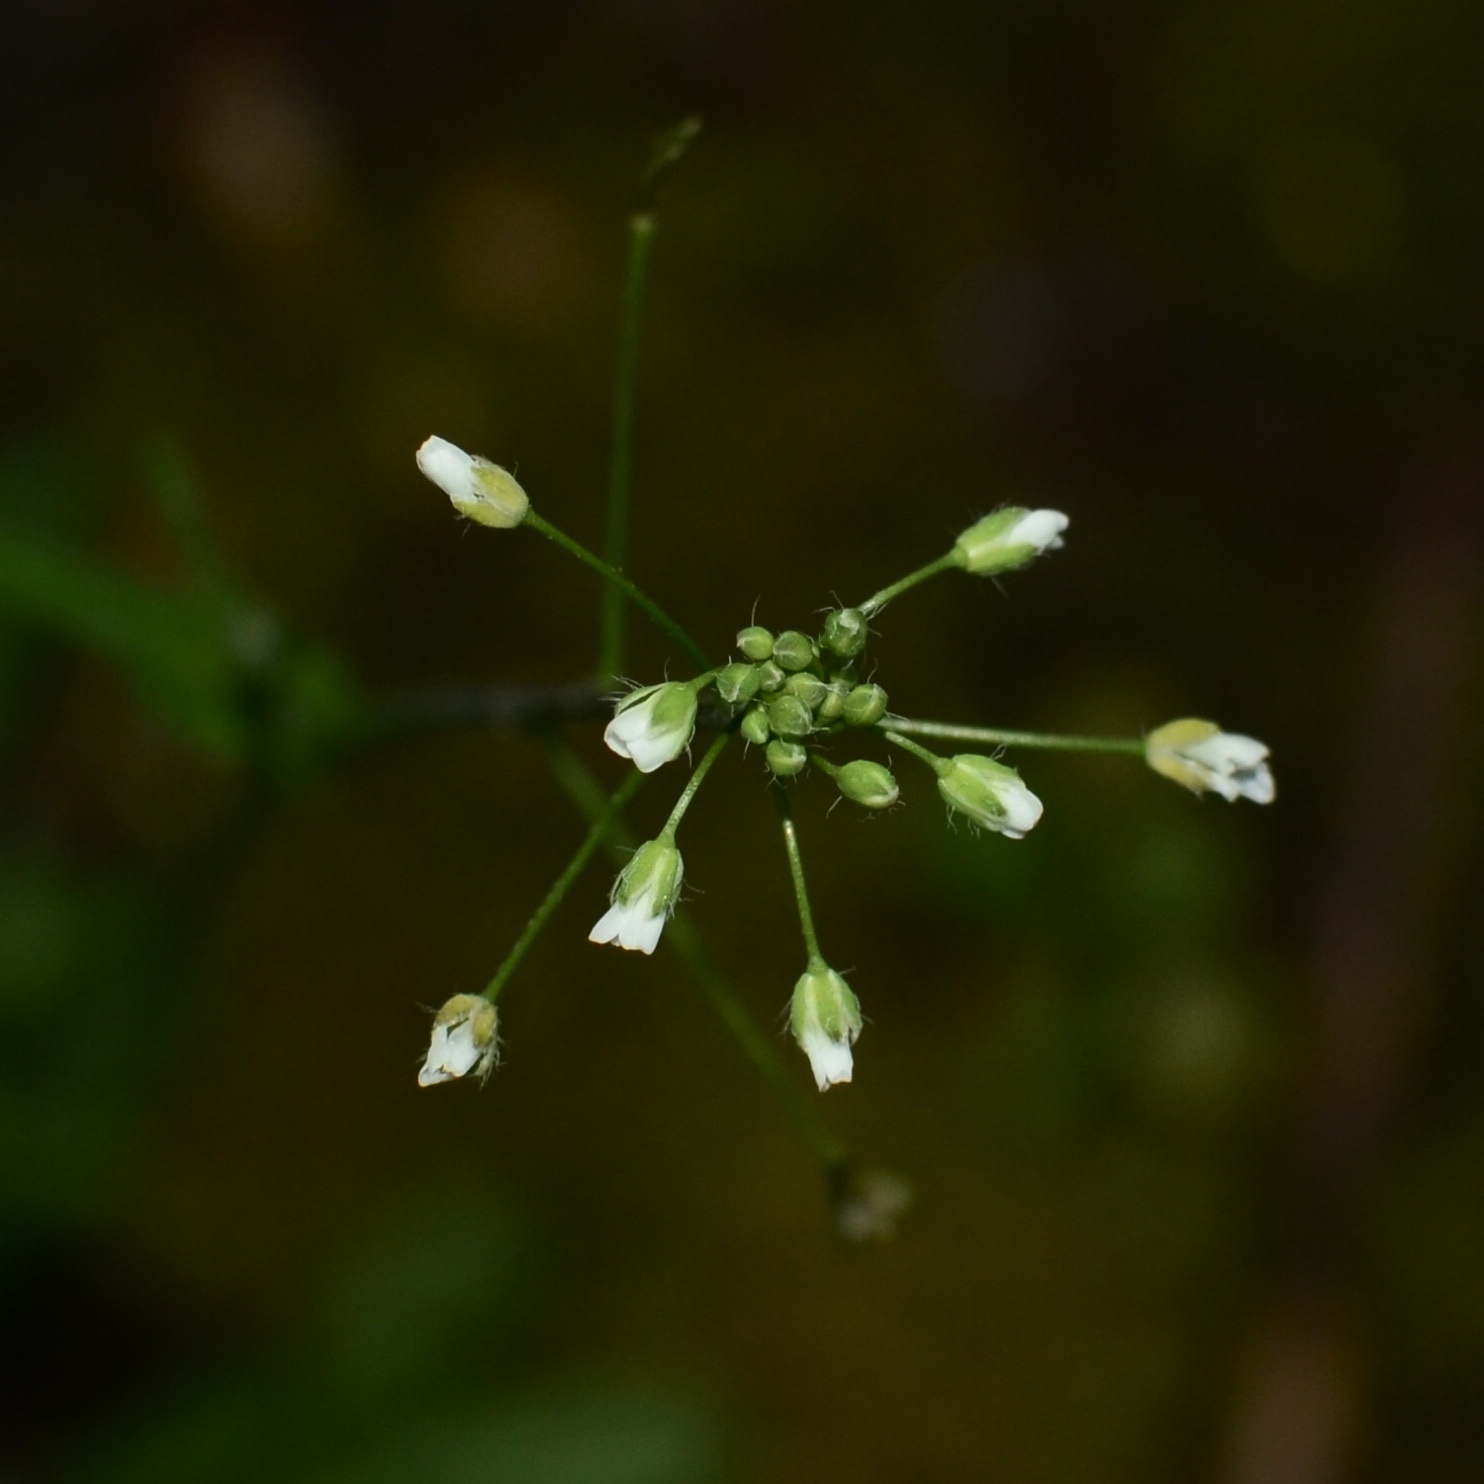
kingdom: Plantae
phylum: Tracheophyta
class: Magnoliopsida
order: Brassicales
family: Brassicaceae
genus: Capsella
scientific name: Capsella bursa-pastoris
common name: Shepherd's purse
